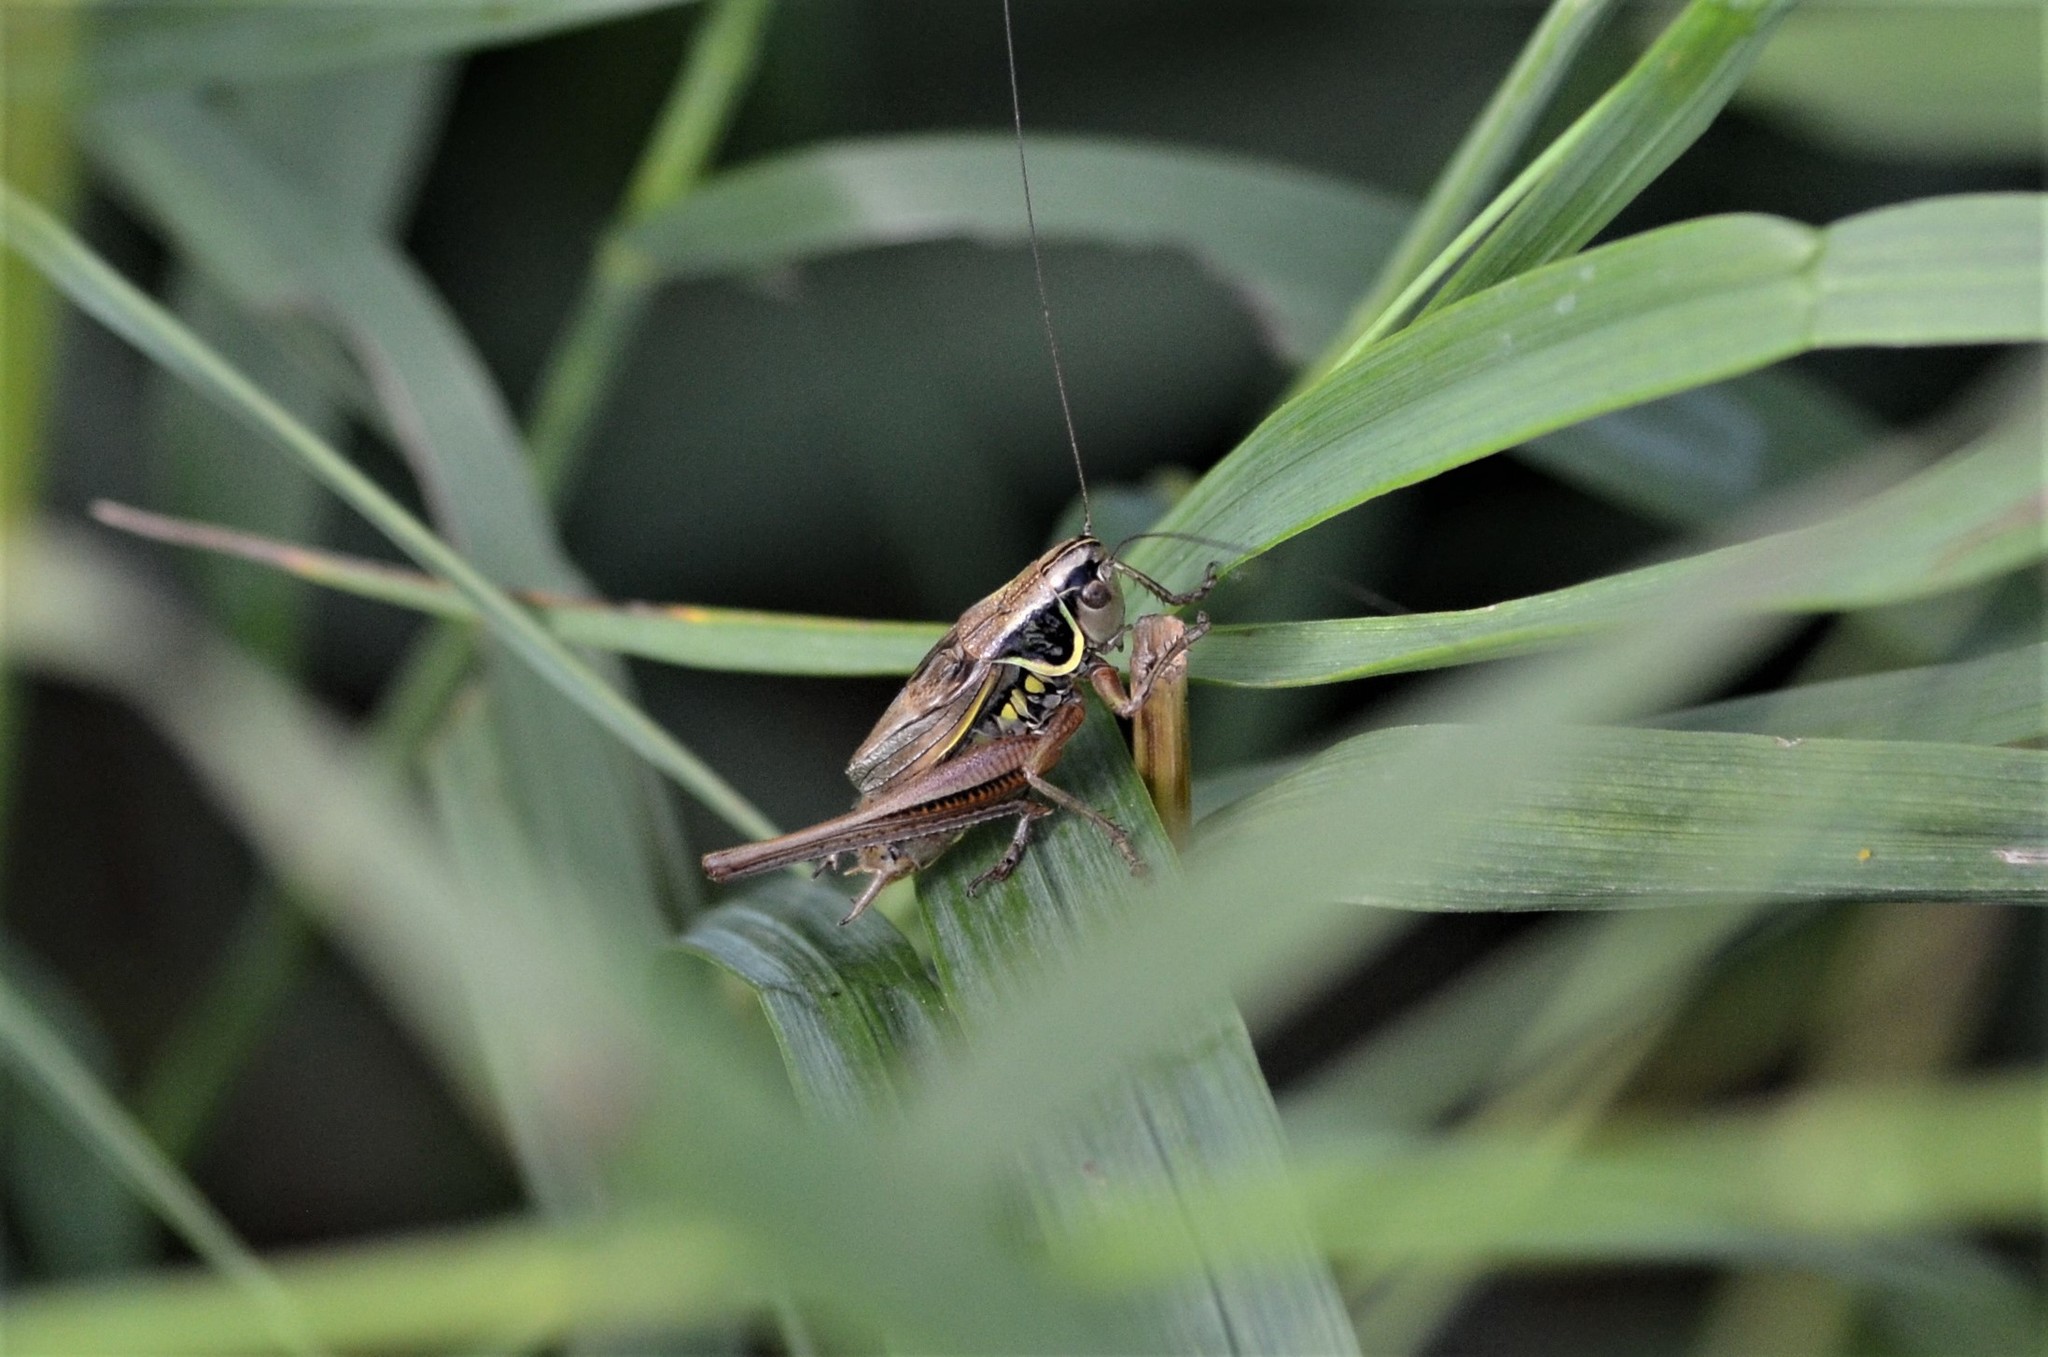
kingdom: Animalia
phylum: Arthropoda
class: Insecta
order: Orthoptera
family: Tettigoniidae
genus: Roeseliana
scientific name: Roeseliana roeselii
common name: Roesel's bush cricket
